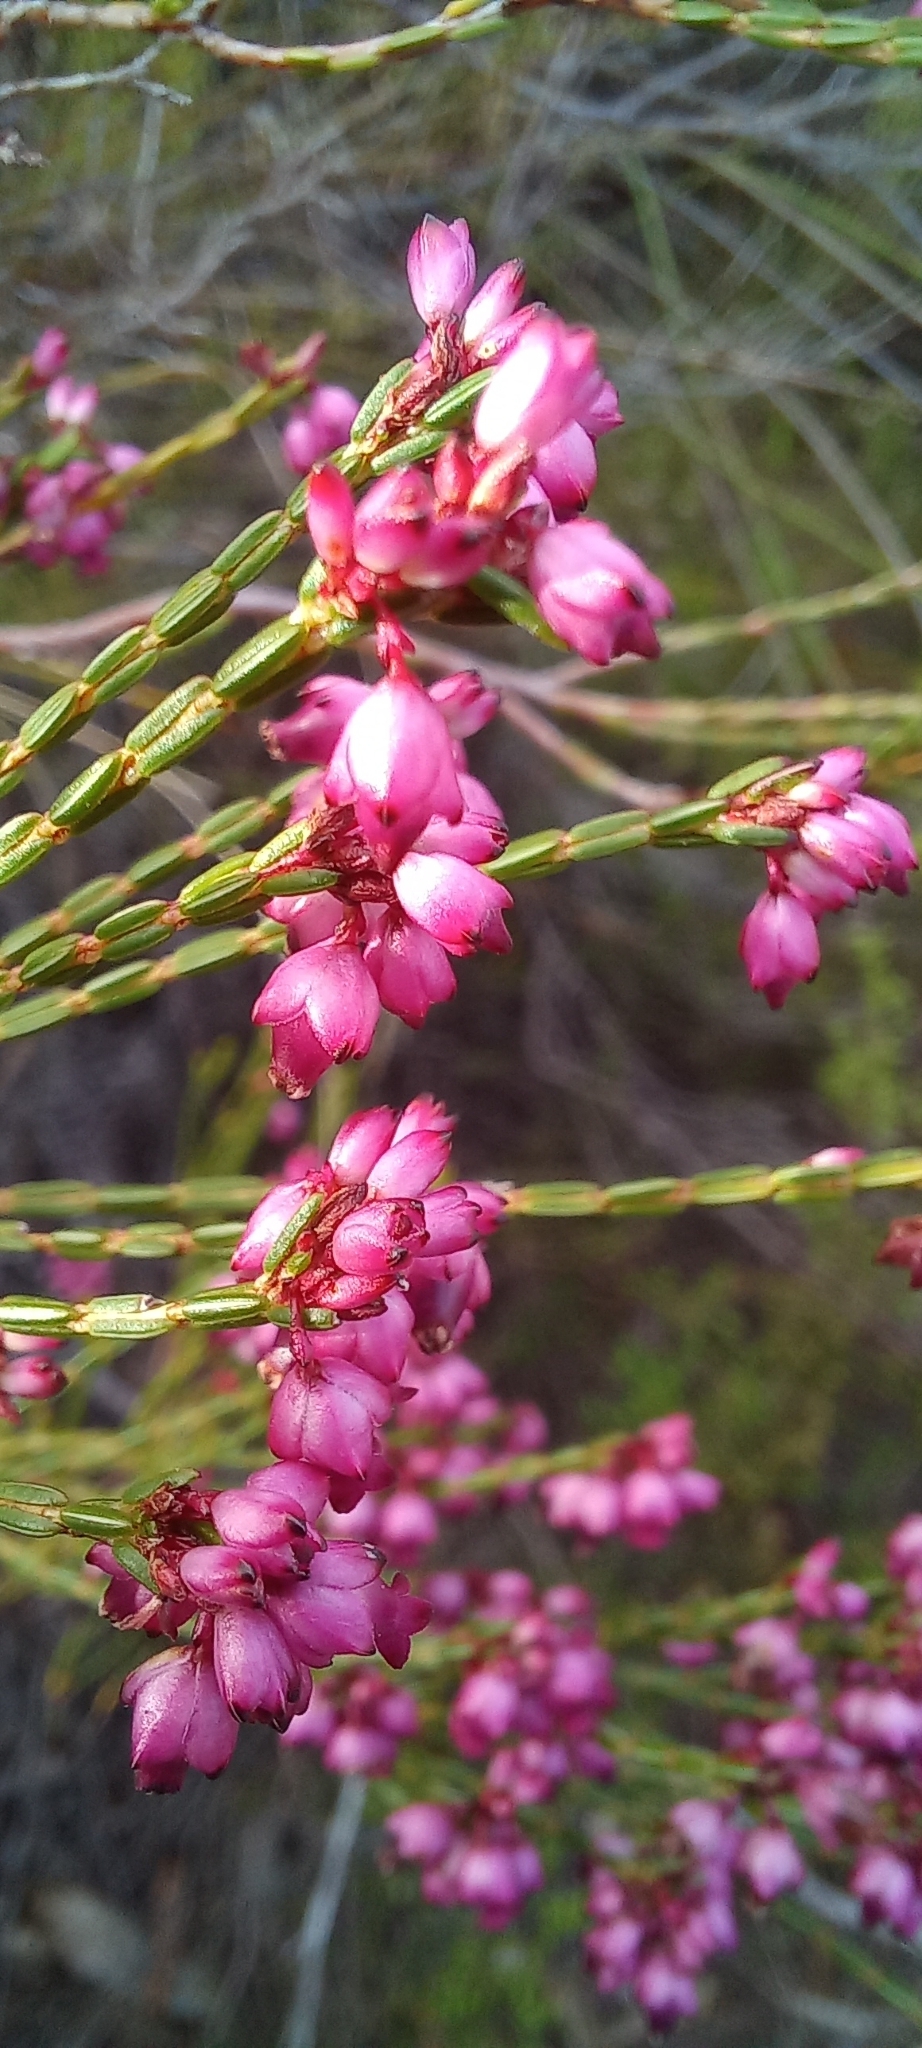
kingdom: Plantae
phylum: Tracheophyta
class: Magnoliopsida
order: Ericales
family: Ericaceae
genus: Erica
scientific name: Erica rhopalantha
